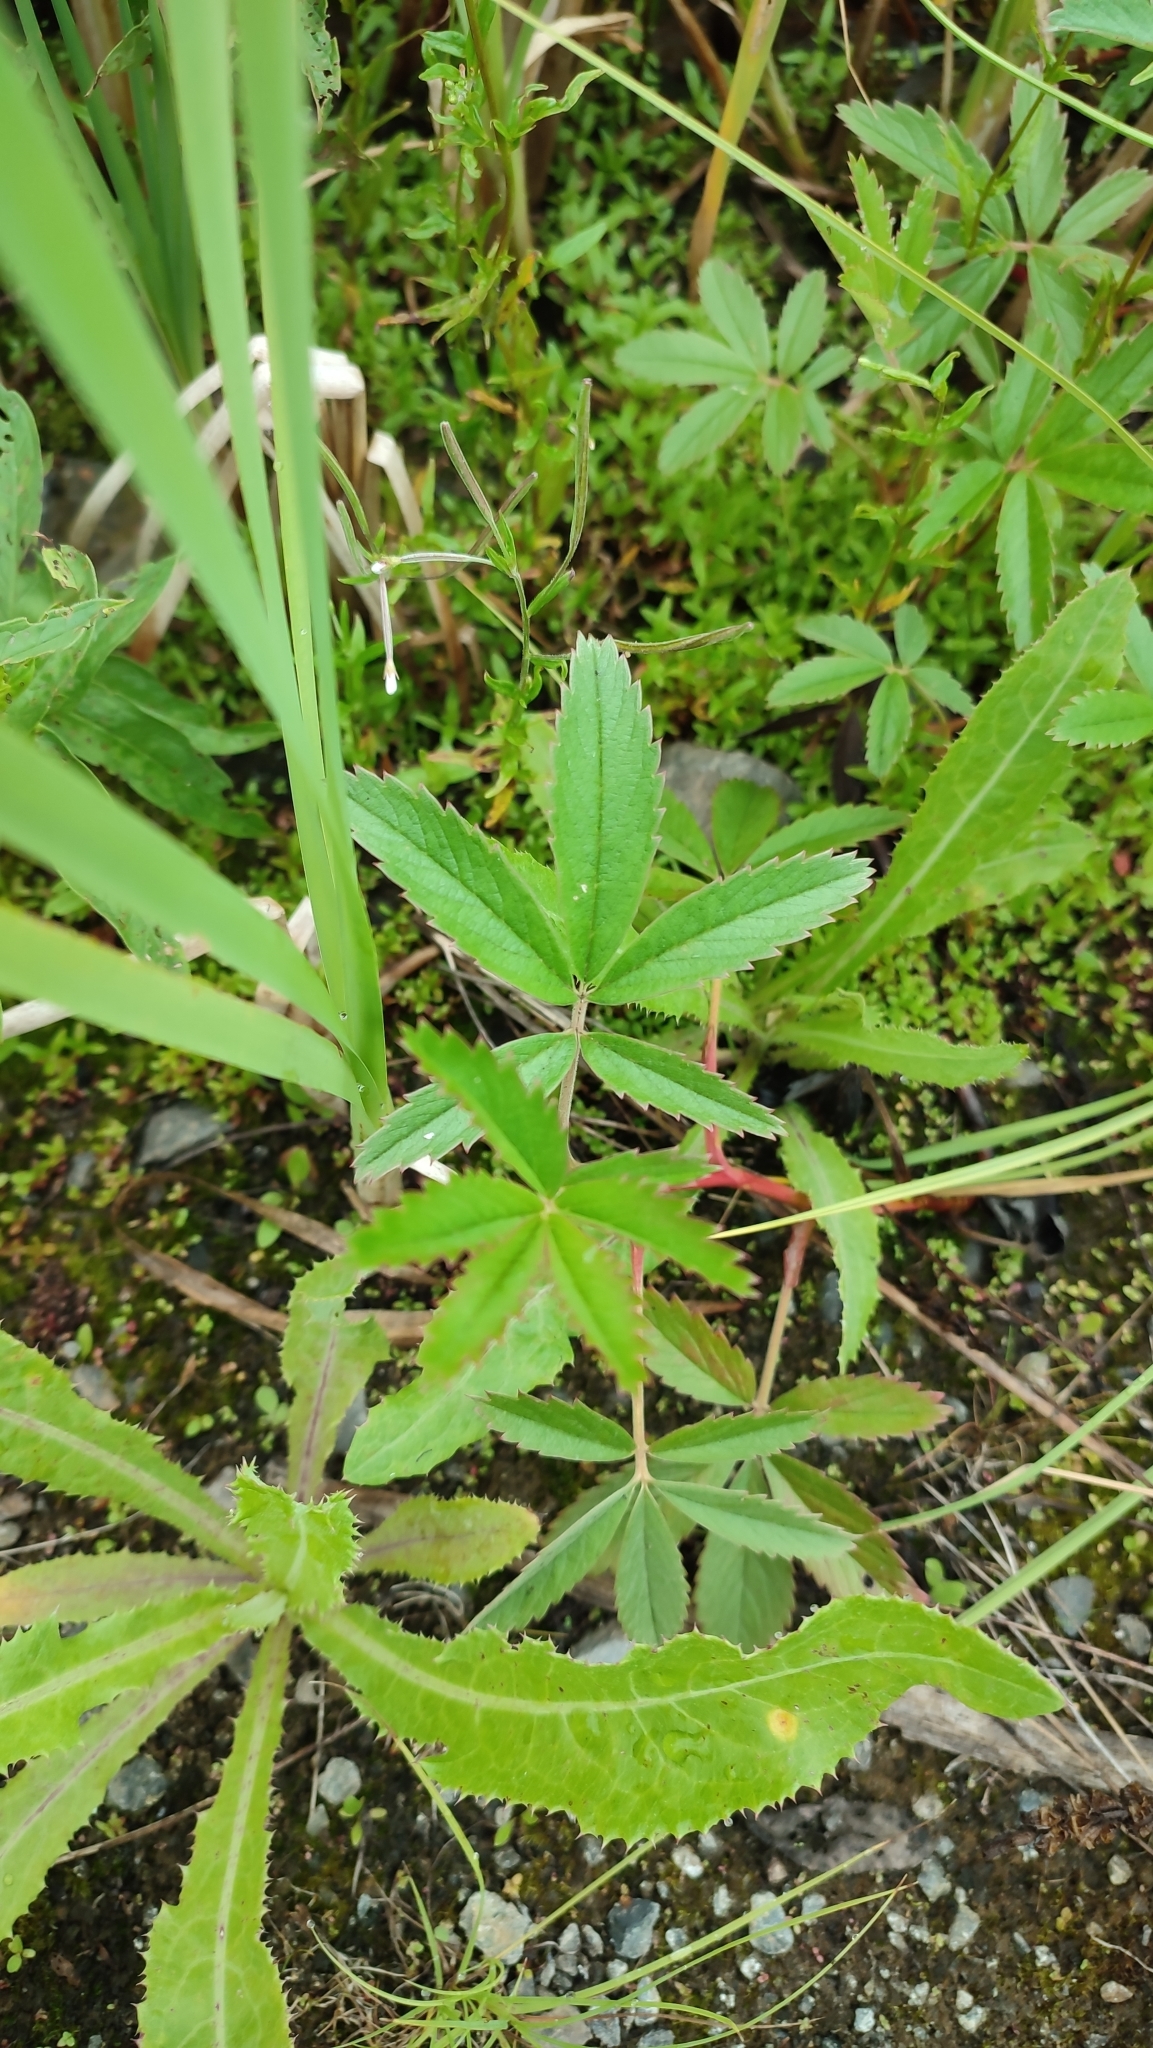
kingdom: Plantae
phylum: Tracheophyta
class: Magnoliopsida
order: Rosales
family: Rosaceae
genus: Comarum
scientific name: Comarum palustre
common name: Marsh cinquefoil
